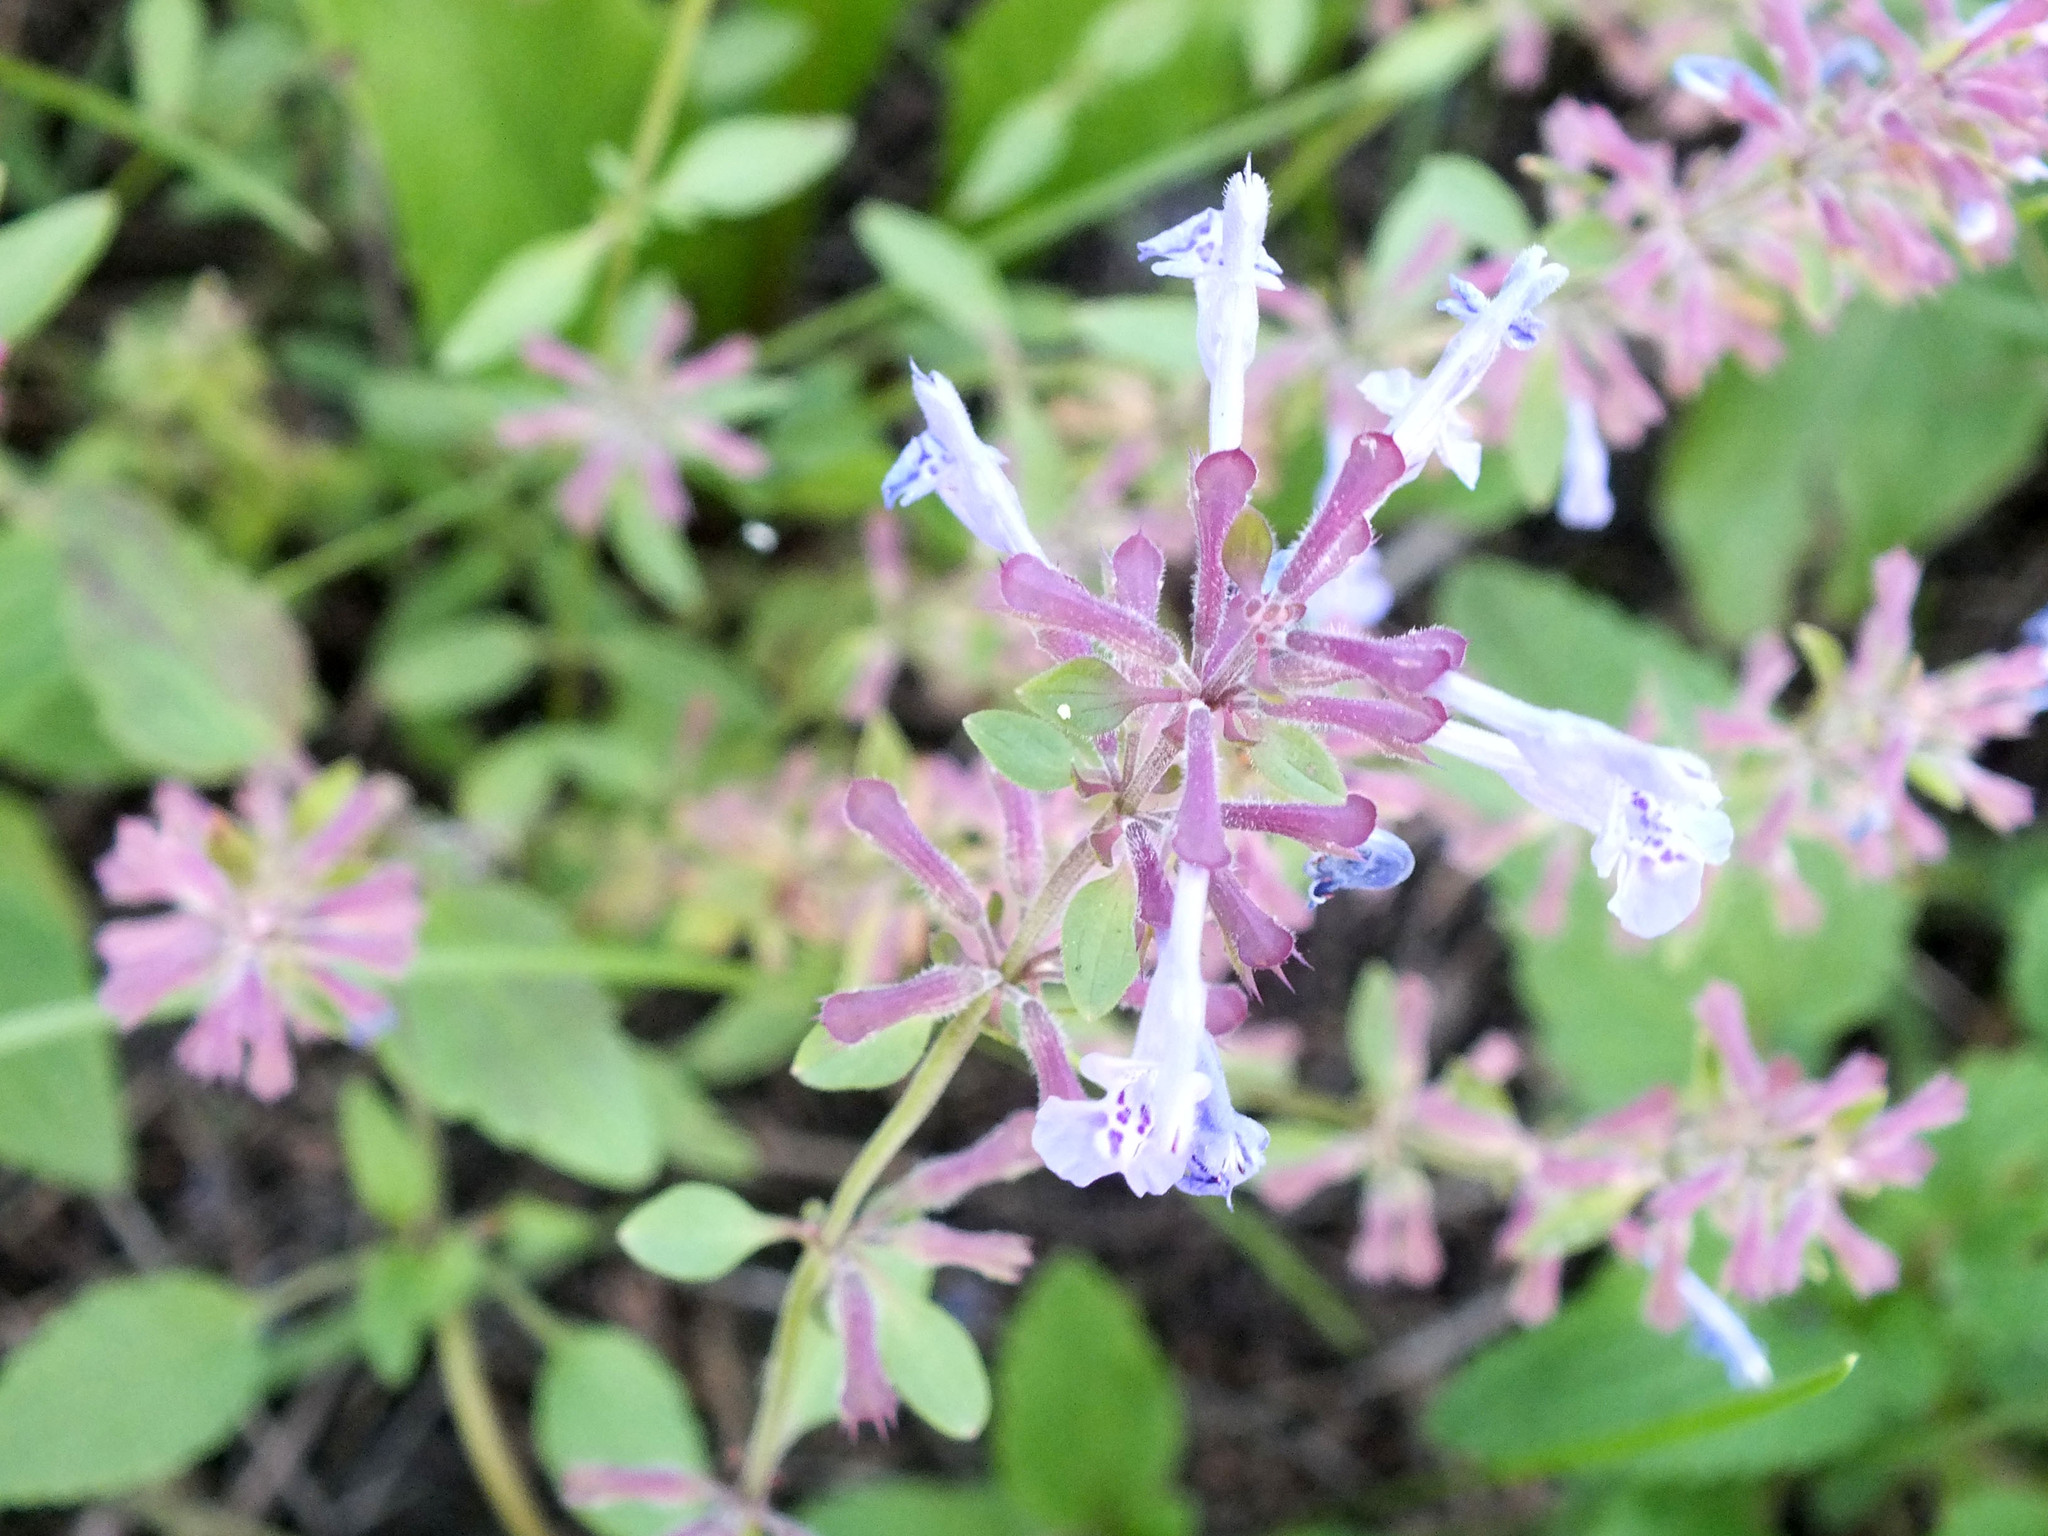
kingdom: Plantae
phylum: Tracheophyta
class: Magnoliopsida
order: Lamiales
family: Lamiaceae
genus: Dracocephalum
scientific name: Dracocephalum nutans
